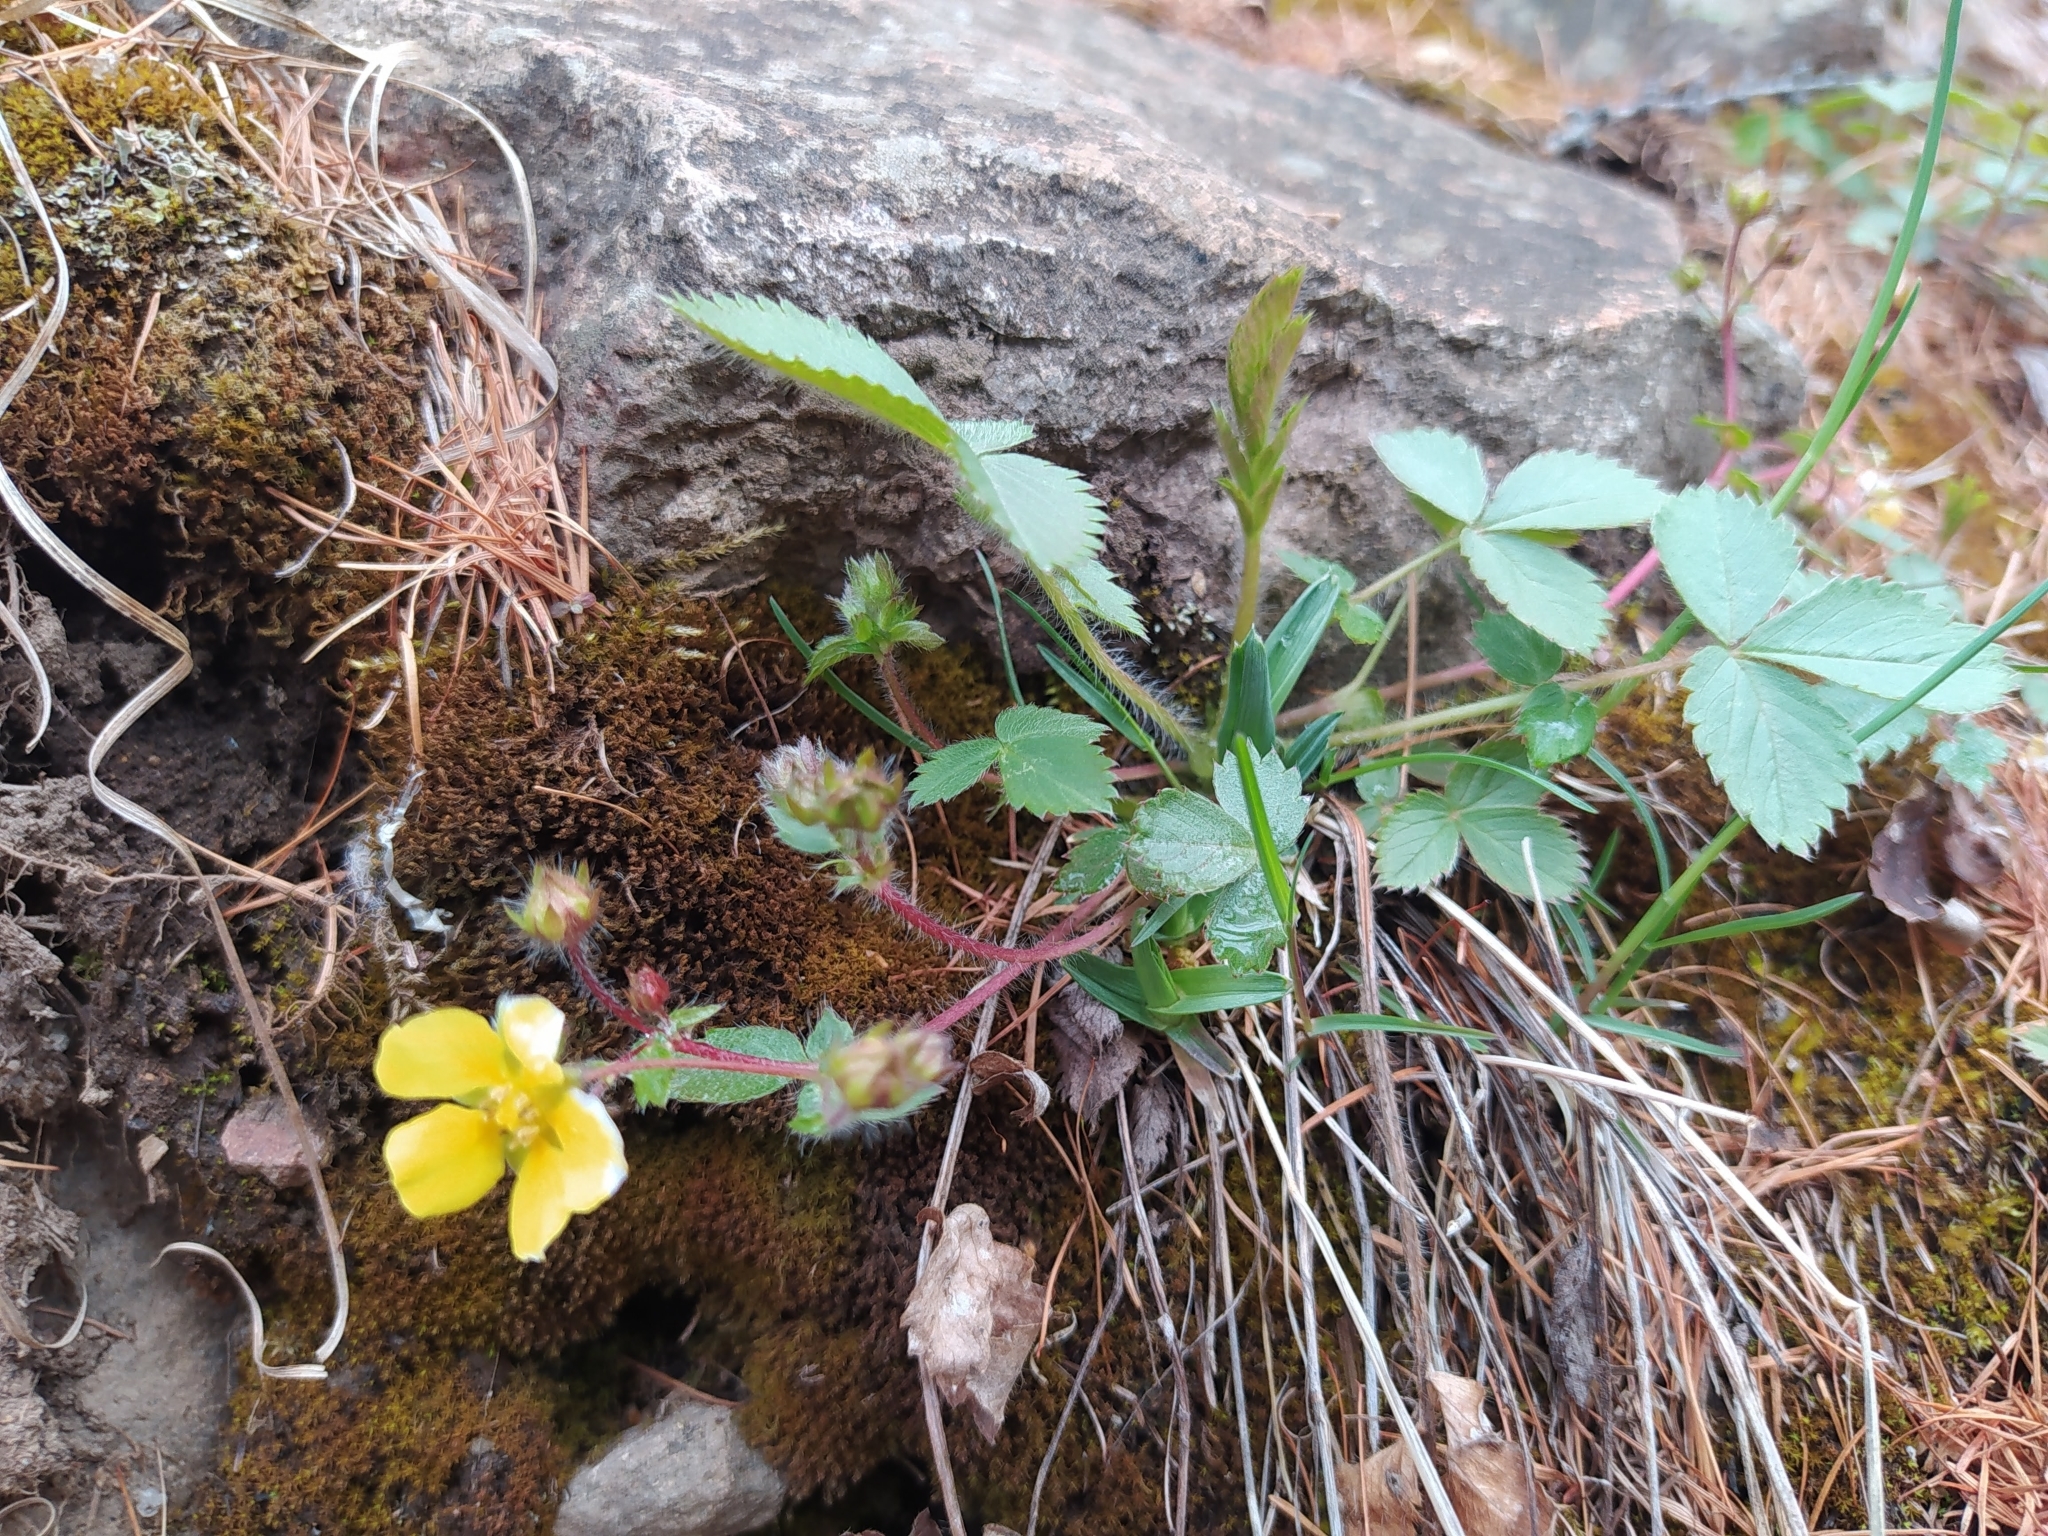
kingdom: Plantae
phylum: Tracheophyta
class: Magnoliopsida
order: Rosales
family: Rosaceae
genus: Potentilla
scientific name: Potentilla fragarioides
